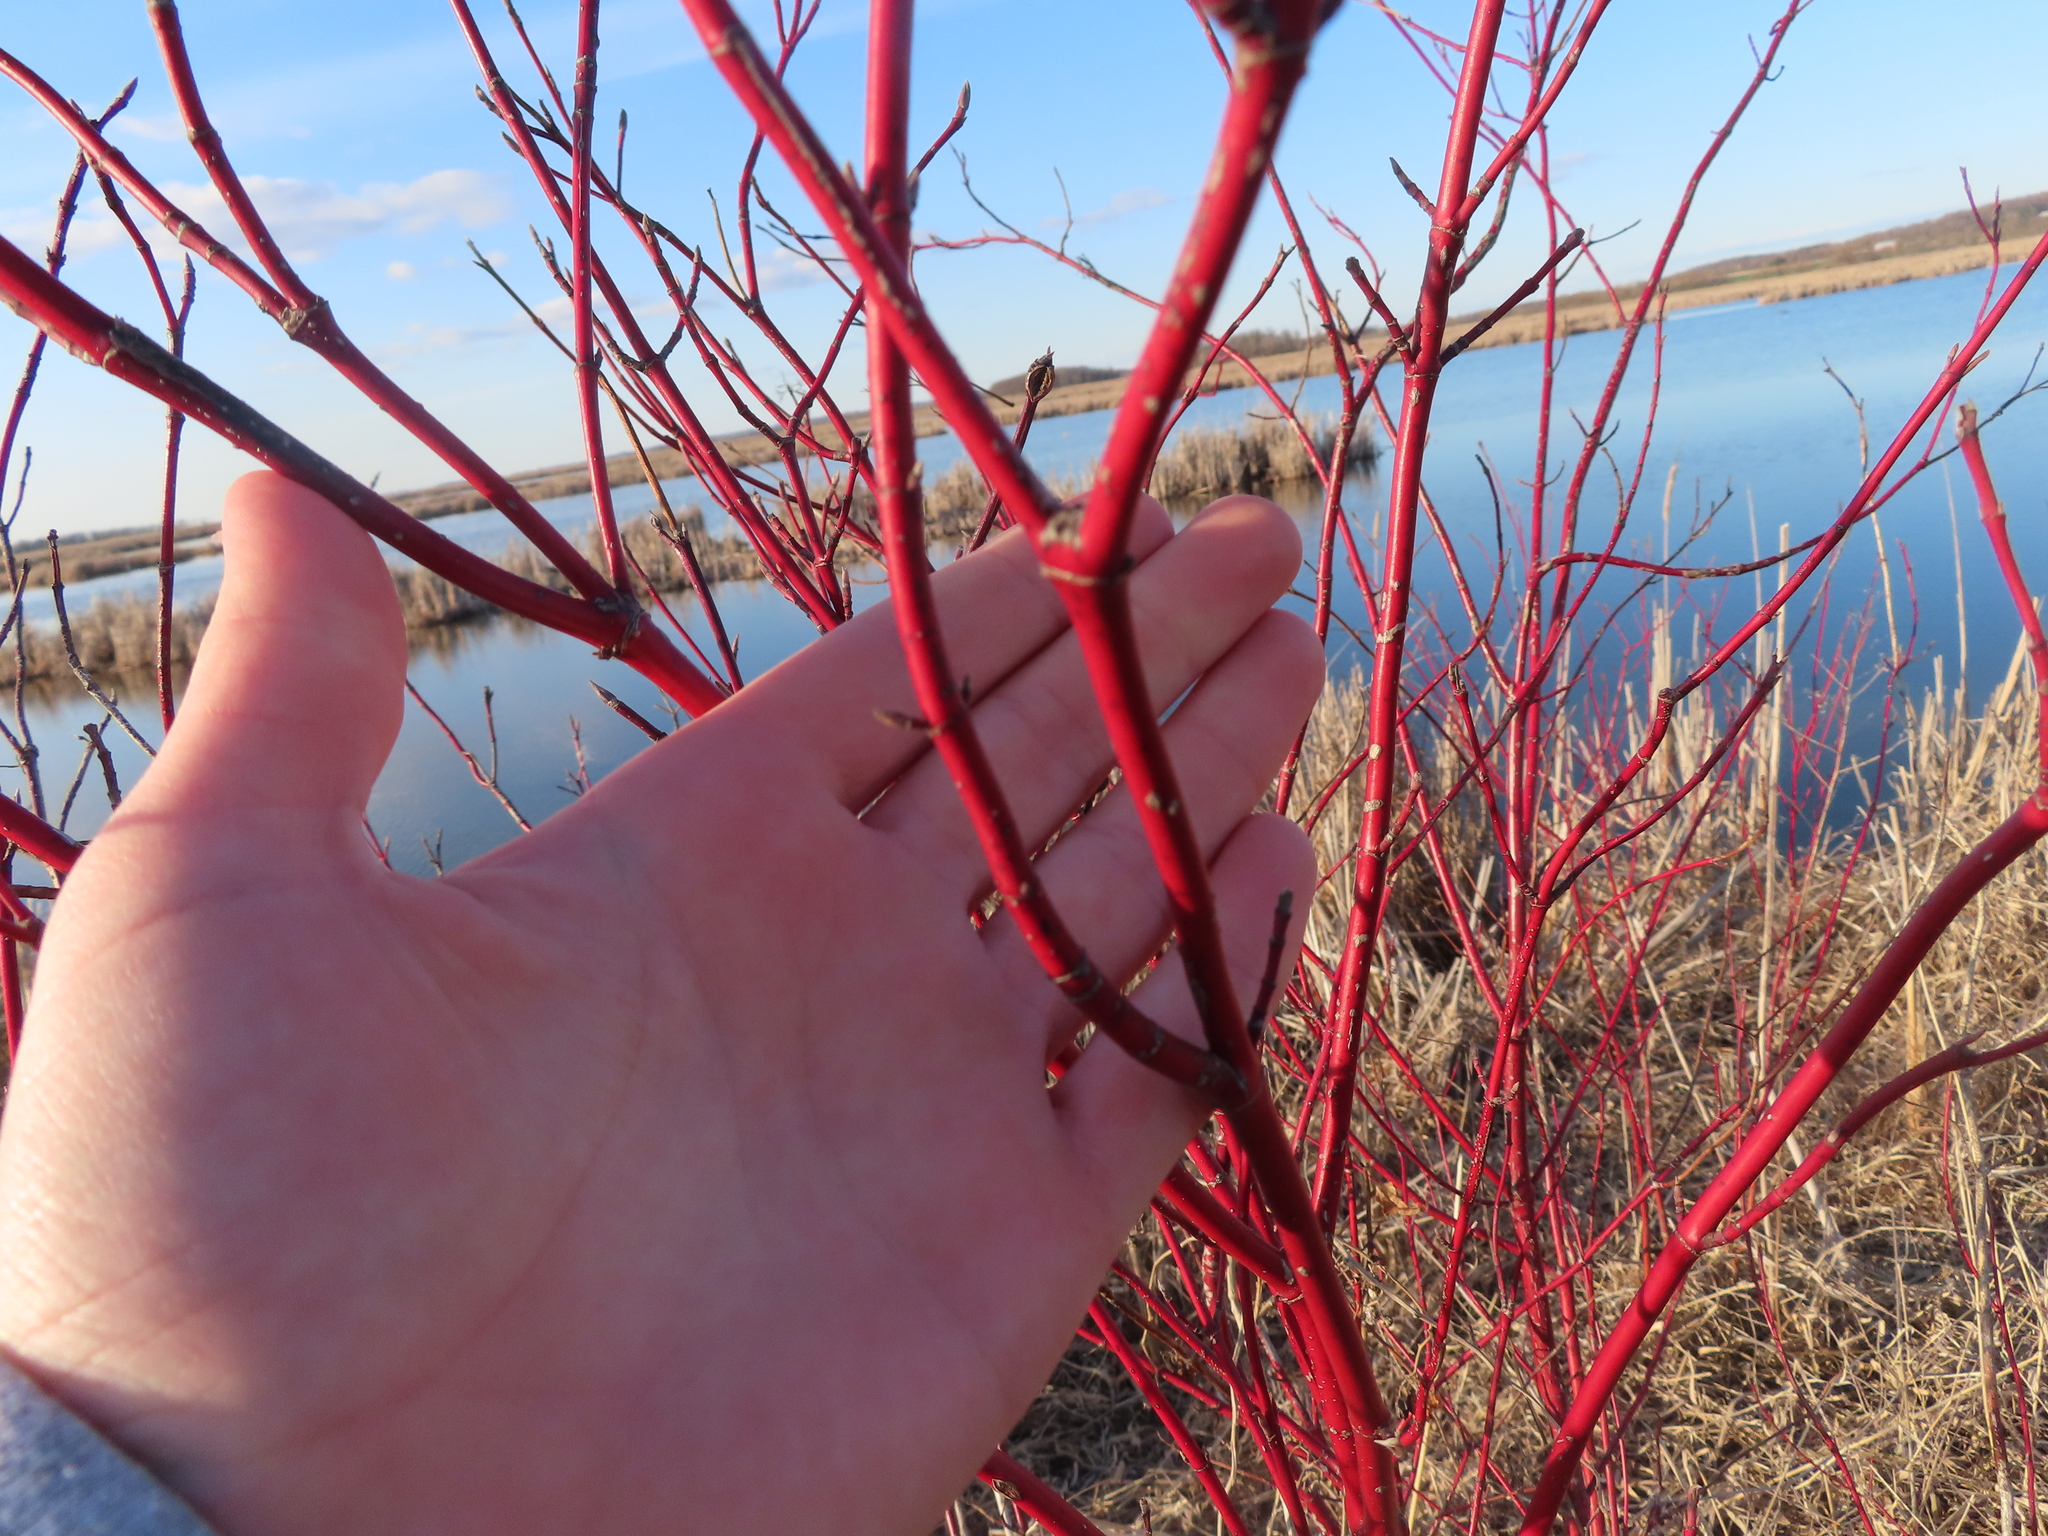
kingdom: Plantae
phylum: Tracheophyta
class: Magnoliopsida
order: Cornales
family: Cornaceae
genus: Cornus
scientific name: Cornus sericea
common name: Red-osier dogwood
